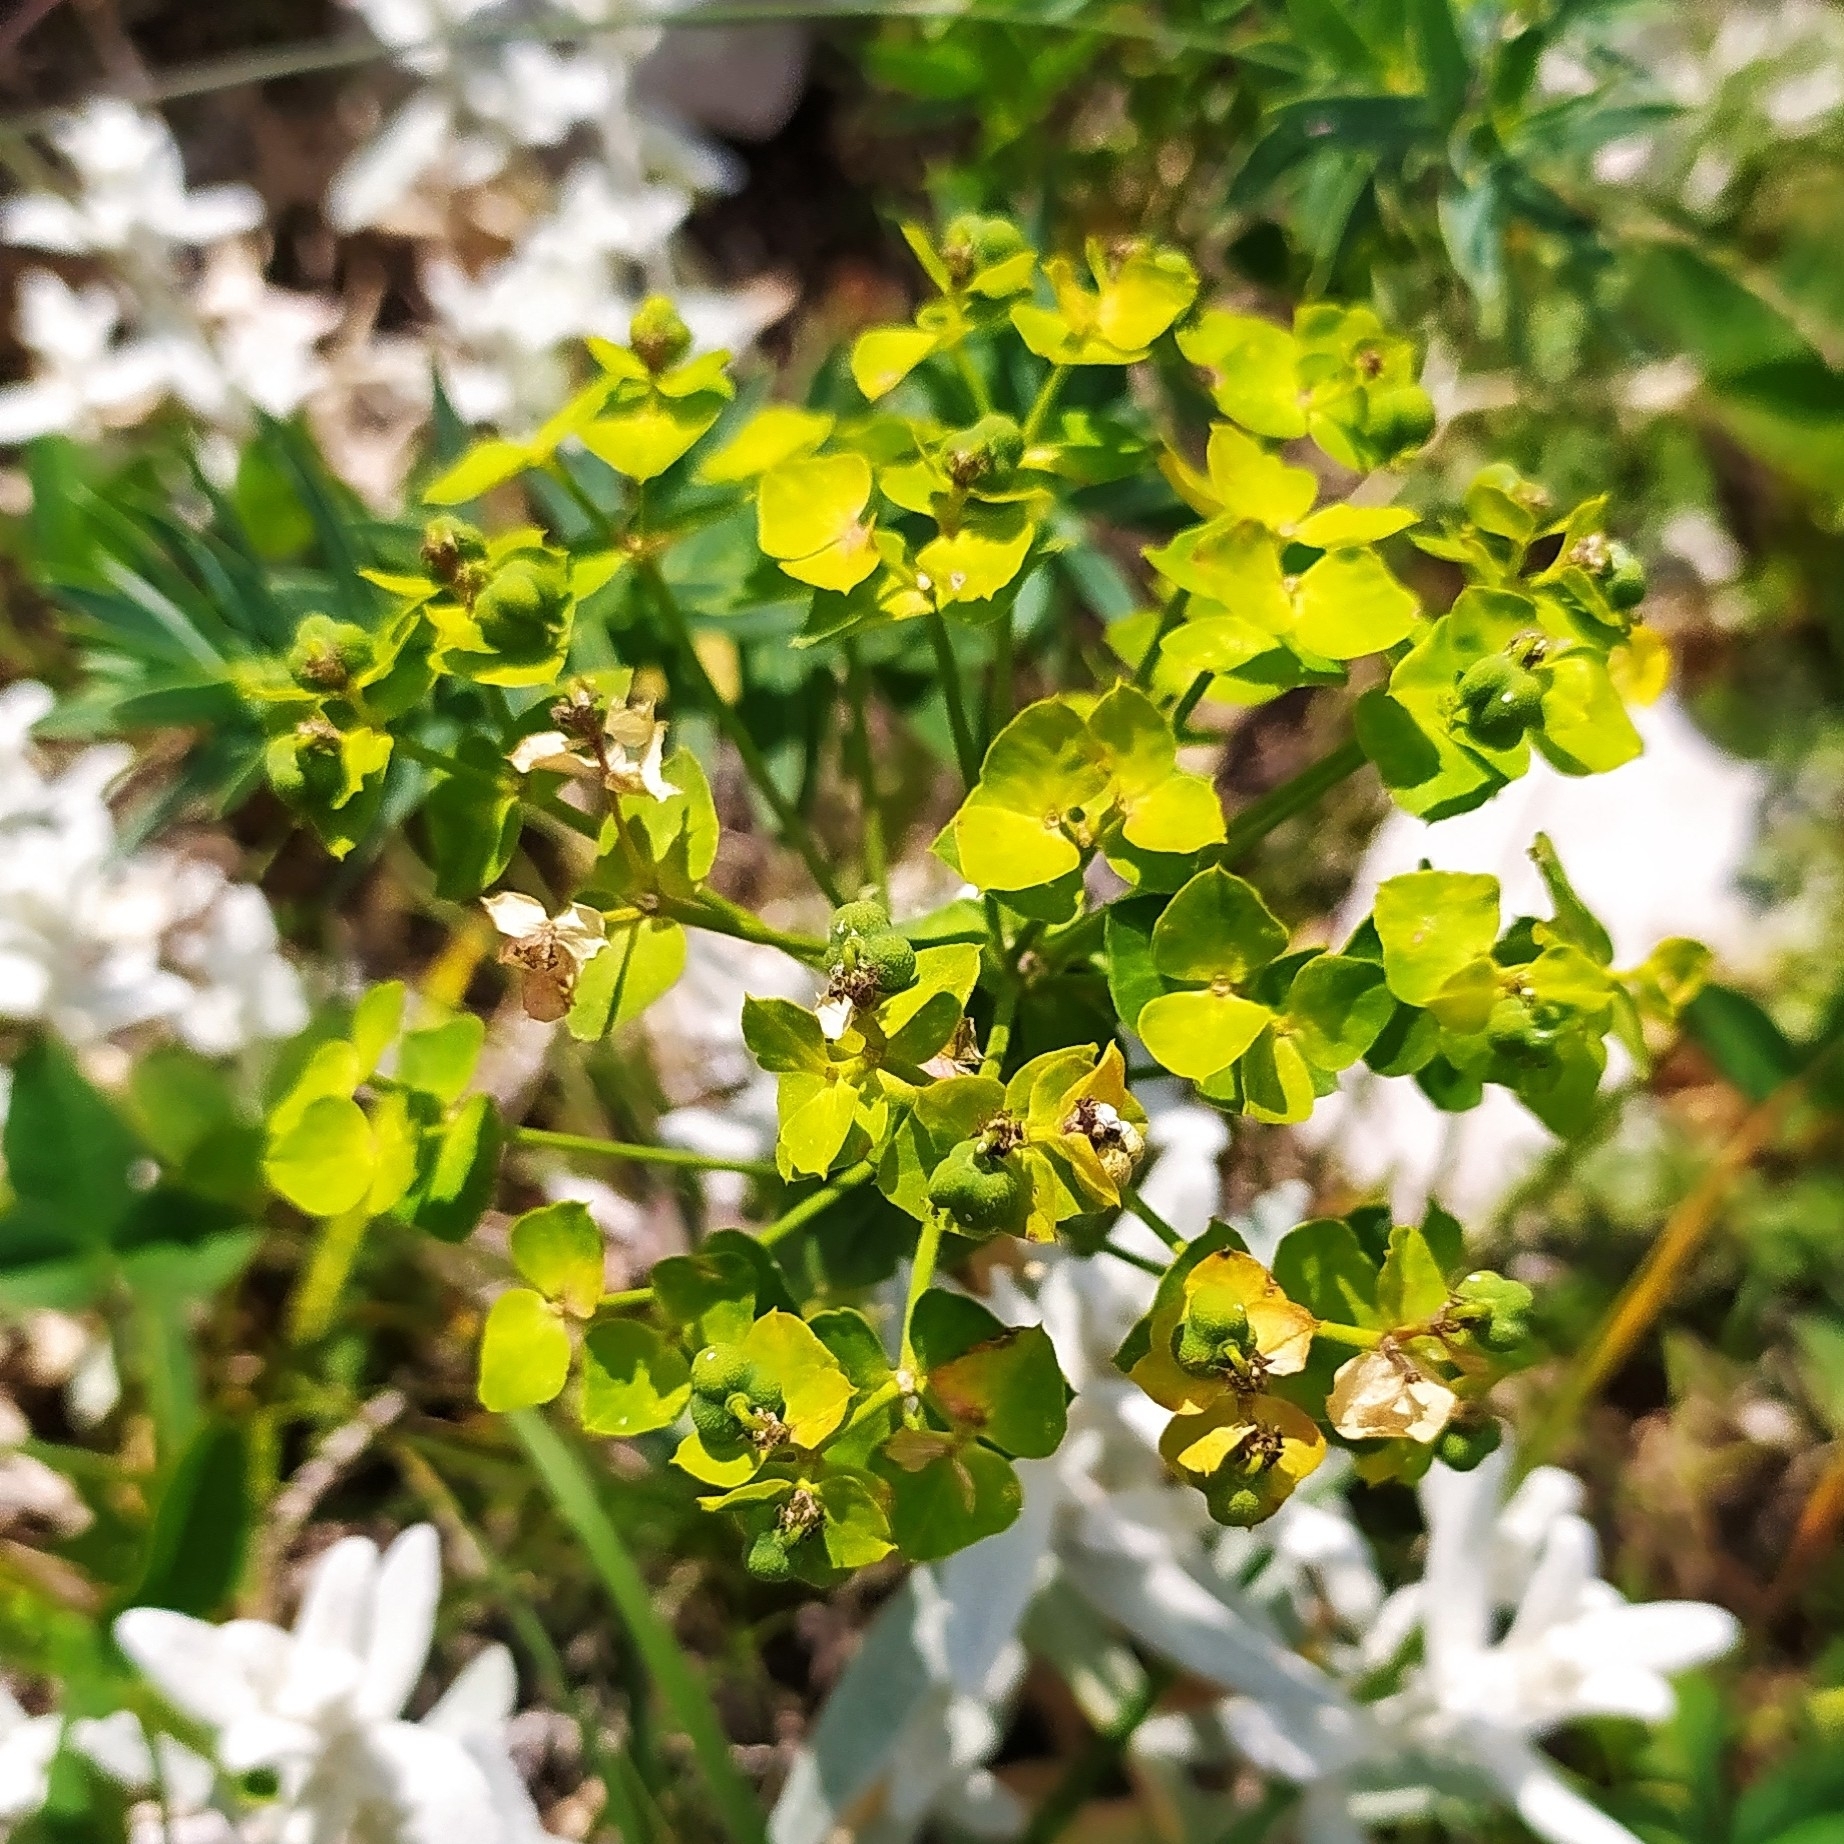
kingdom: Plantae
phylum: Tracheophyta
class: Magnoliopsida
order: Malpighiales
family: Euphorbiaceae
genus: Euphorbia
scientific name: Euphorbia virgata
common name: Leafy spurge
